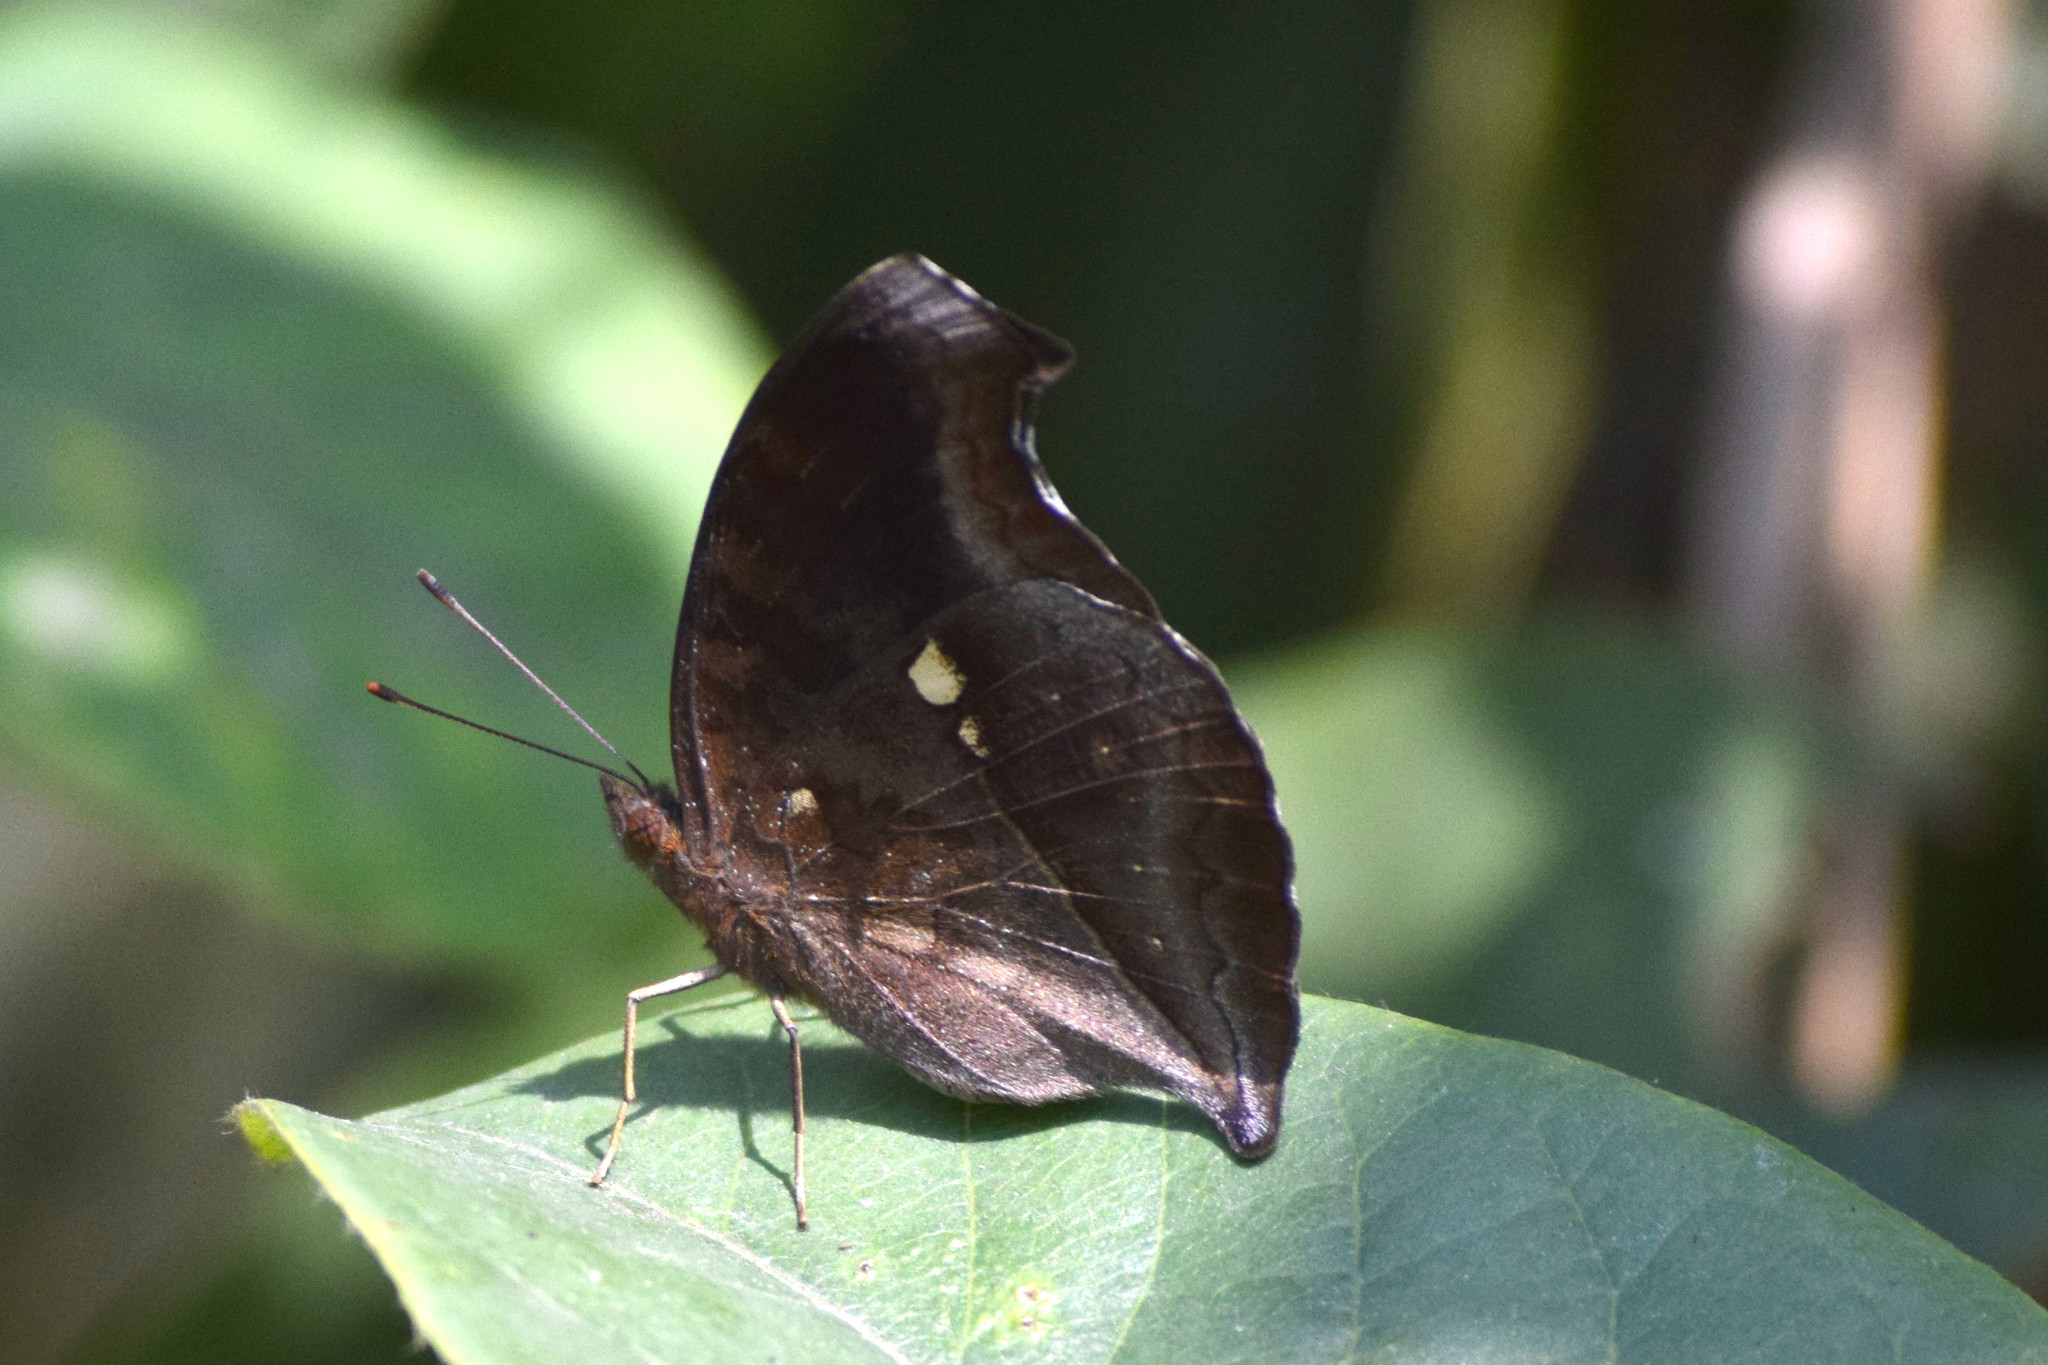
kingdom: Animalia
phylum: Arthropoda
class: Insecta
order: Lepidoptera
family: Nymphalidae
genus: Junonia
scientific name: Junonia iphita
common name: Chocolate pansy
